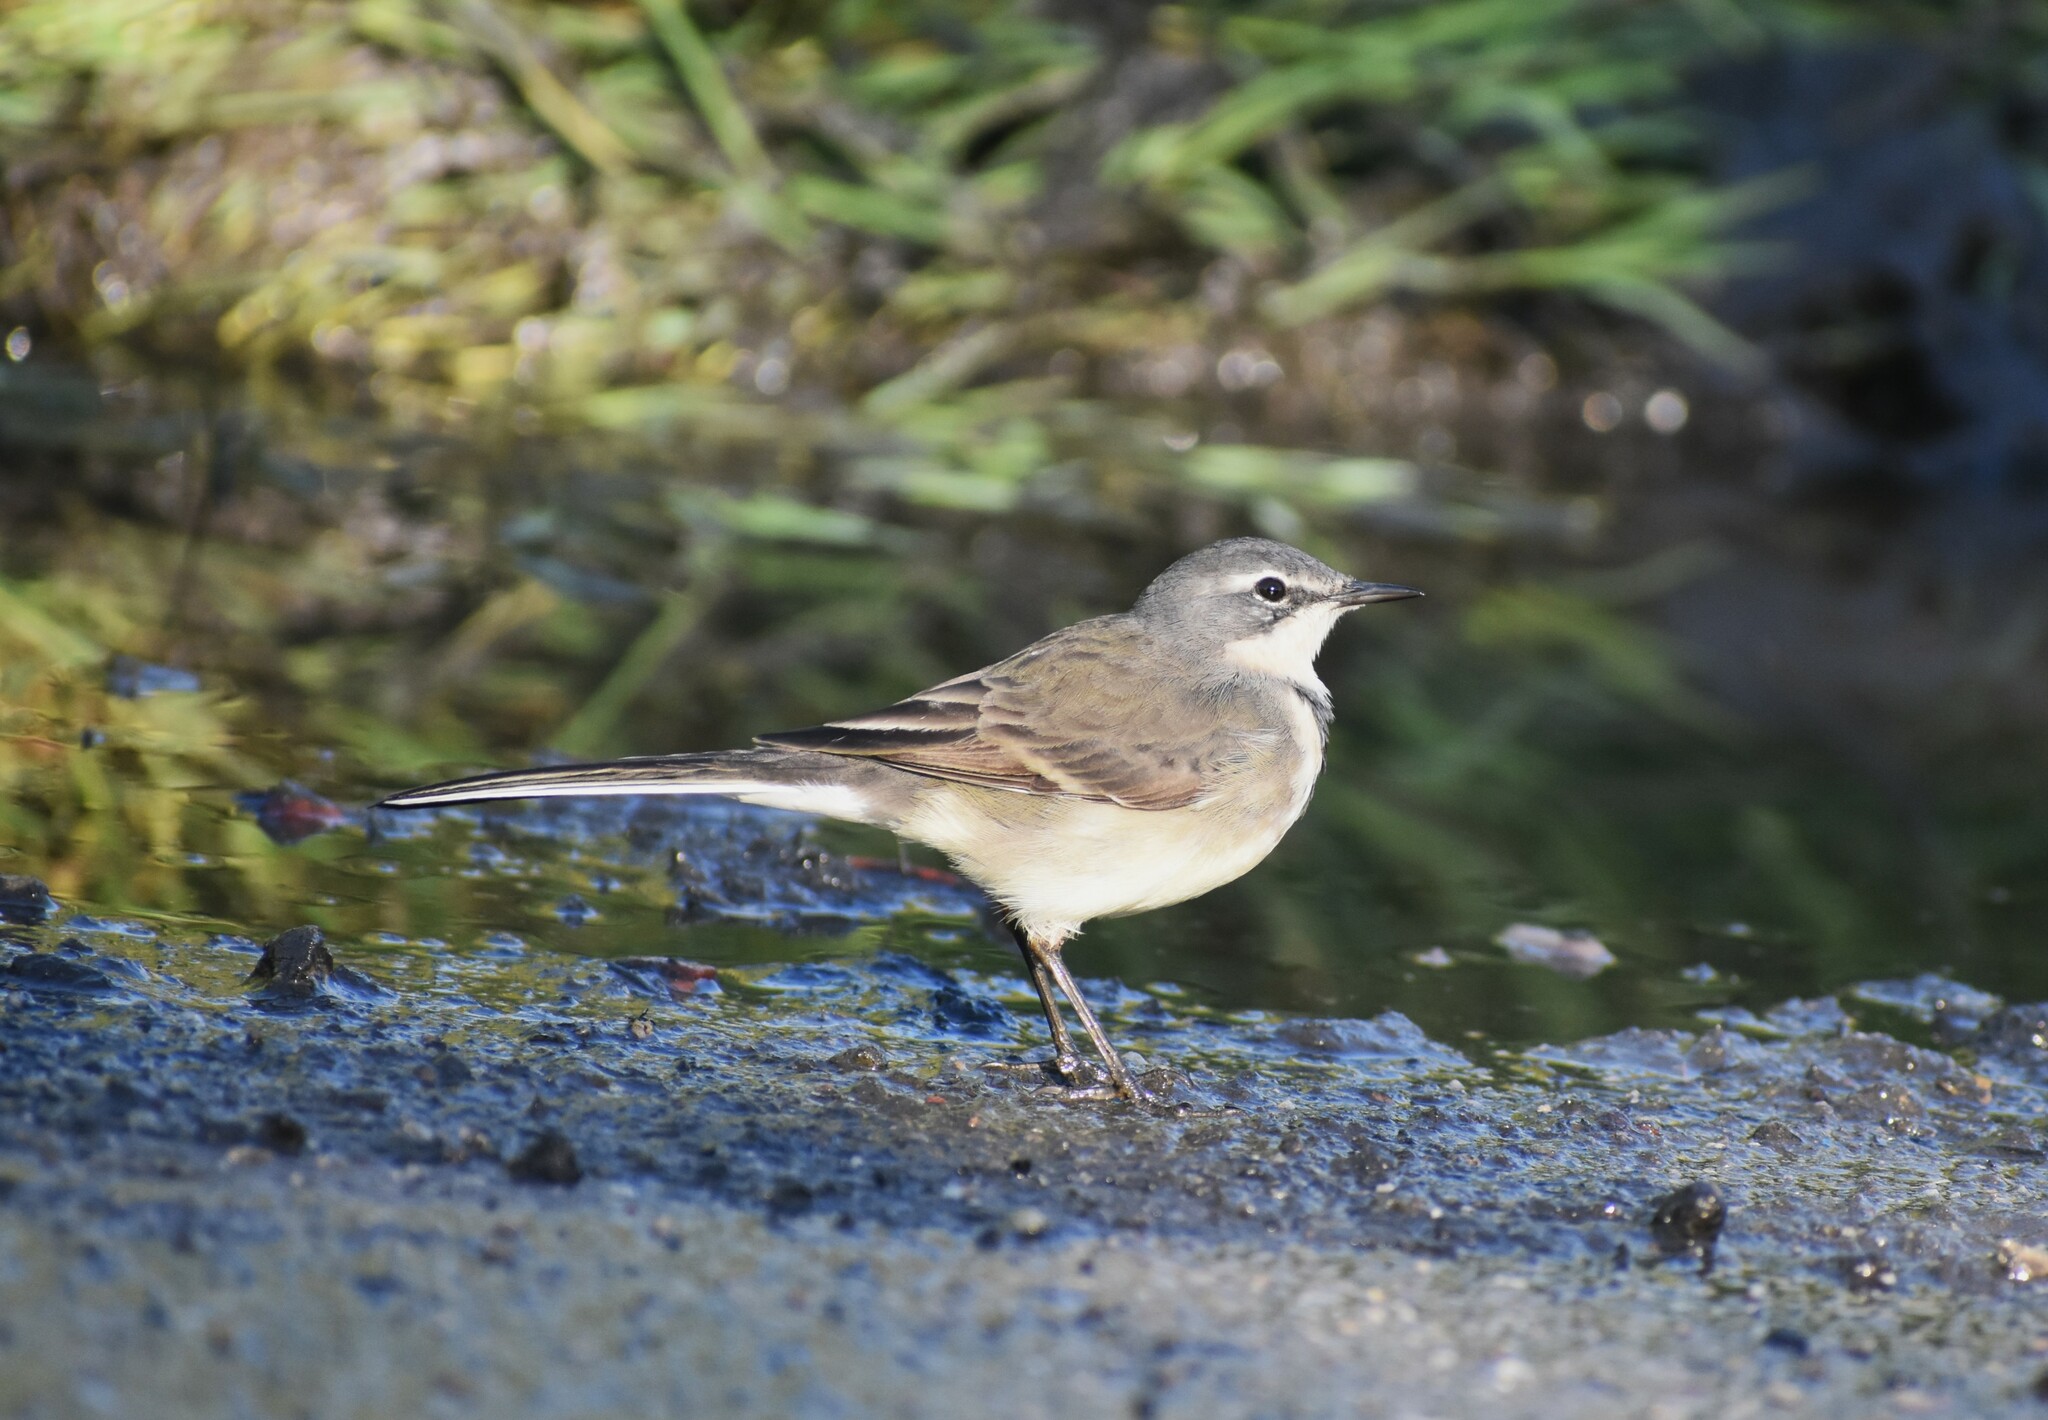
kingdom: Animalia
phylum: Chordata
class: Aves
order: Passeriformes
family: Motacillidae
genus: Motacilla
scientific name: Motacilla capensis
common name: Cape wagtail
